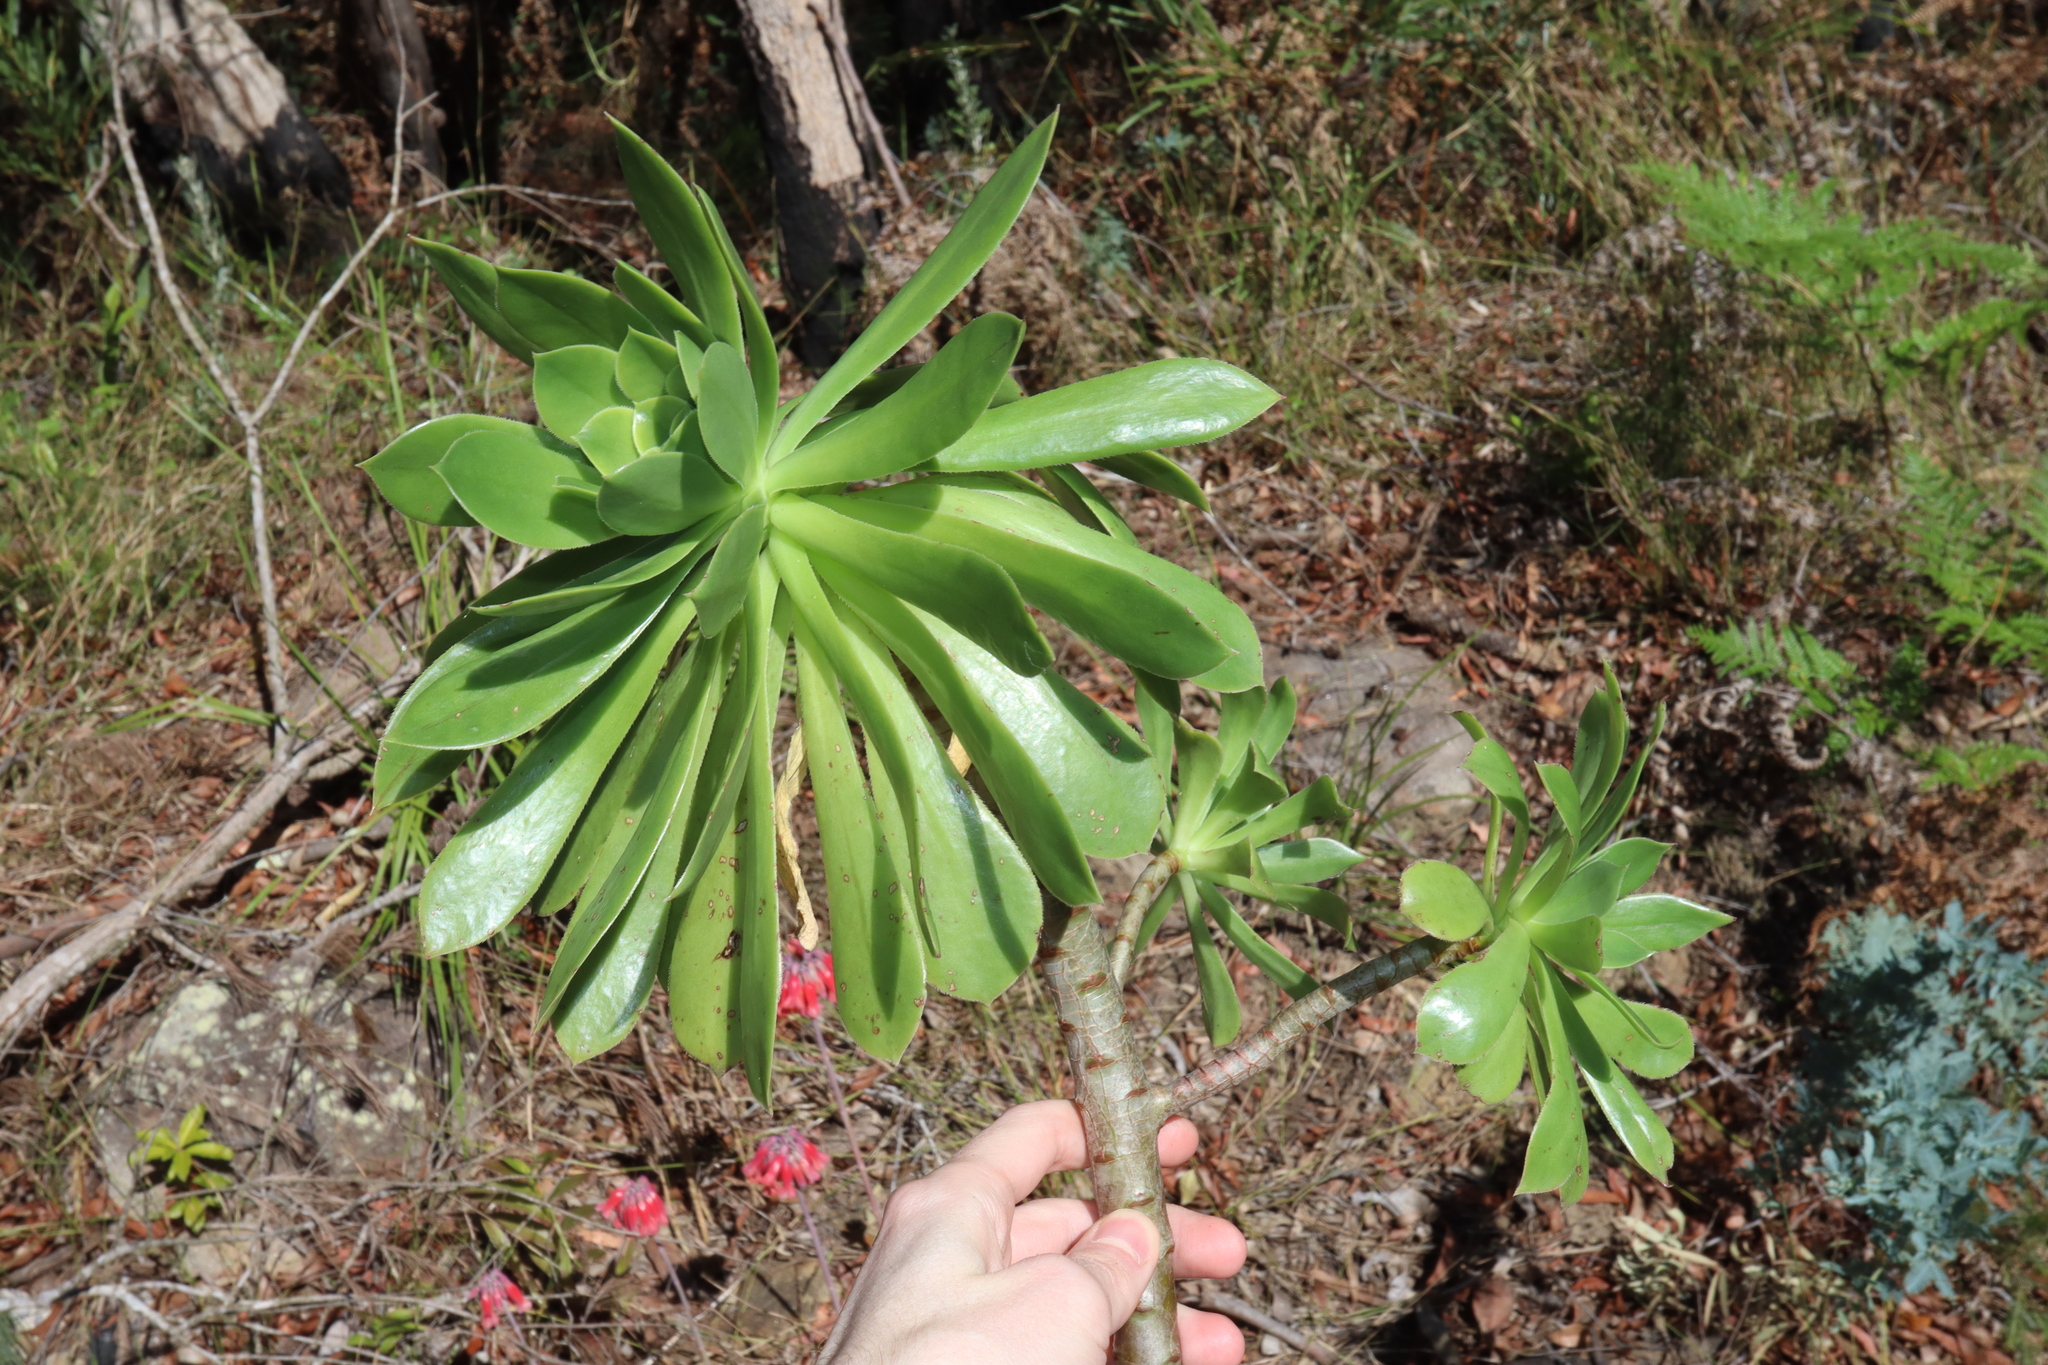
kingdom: Plantae
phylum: Tracheophyta
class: Magnoliopsida
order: Saxifragales
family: Crassulaceae
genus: Aeonium
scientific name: Aeonium arboreum
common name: Tree aeonium
